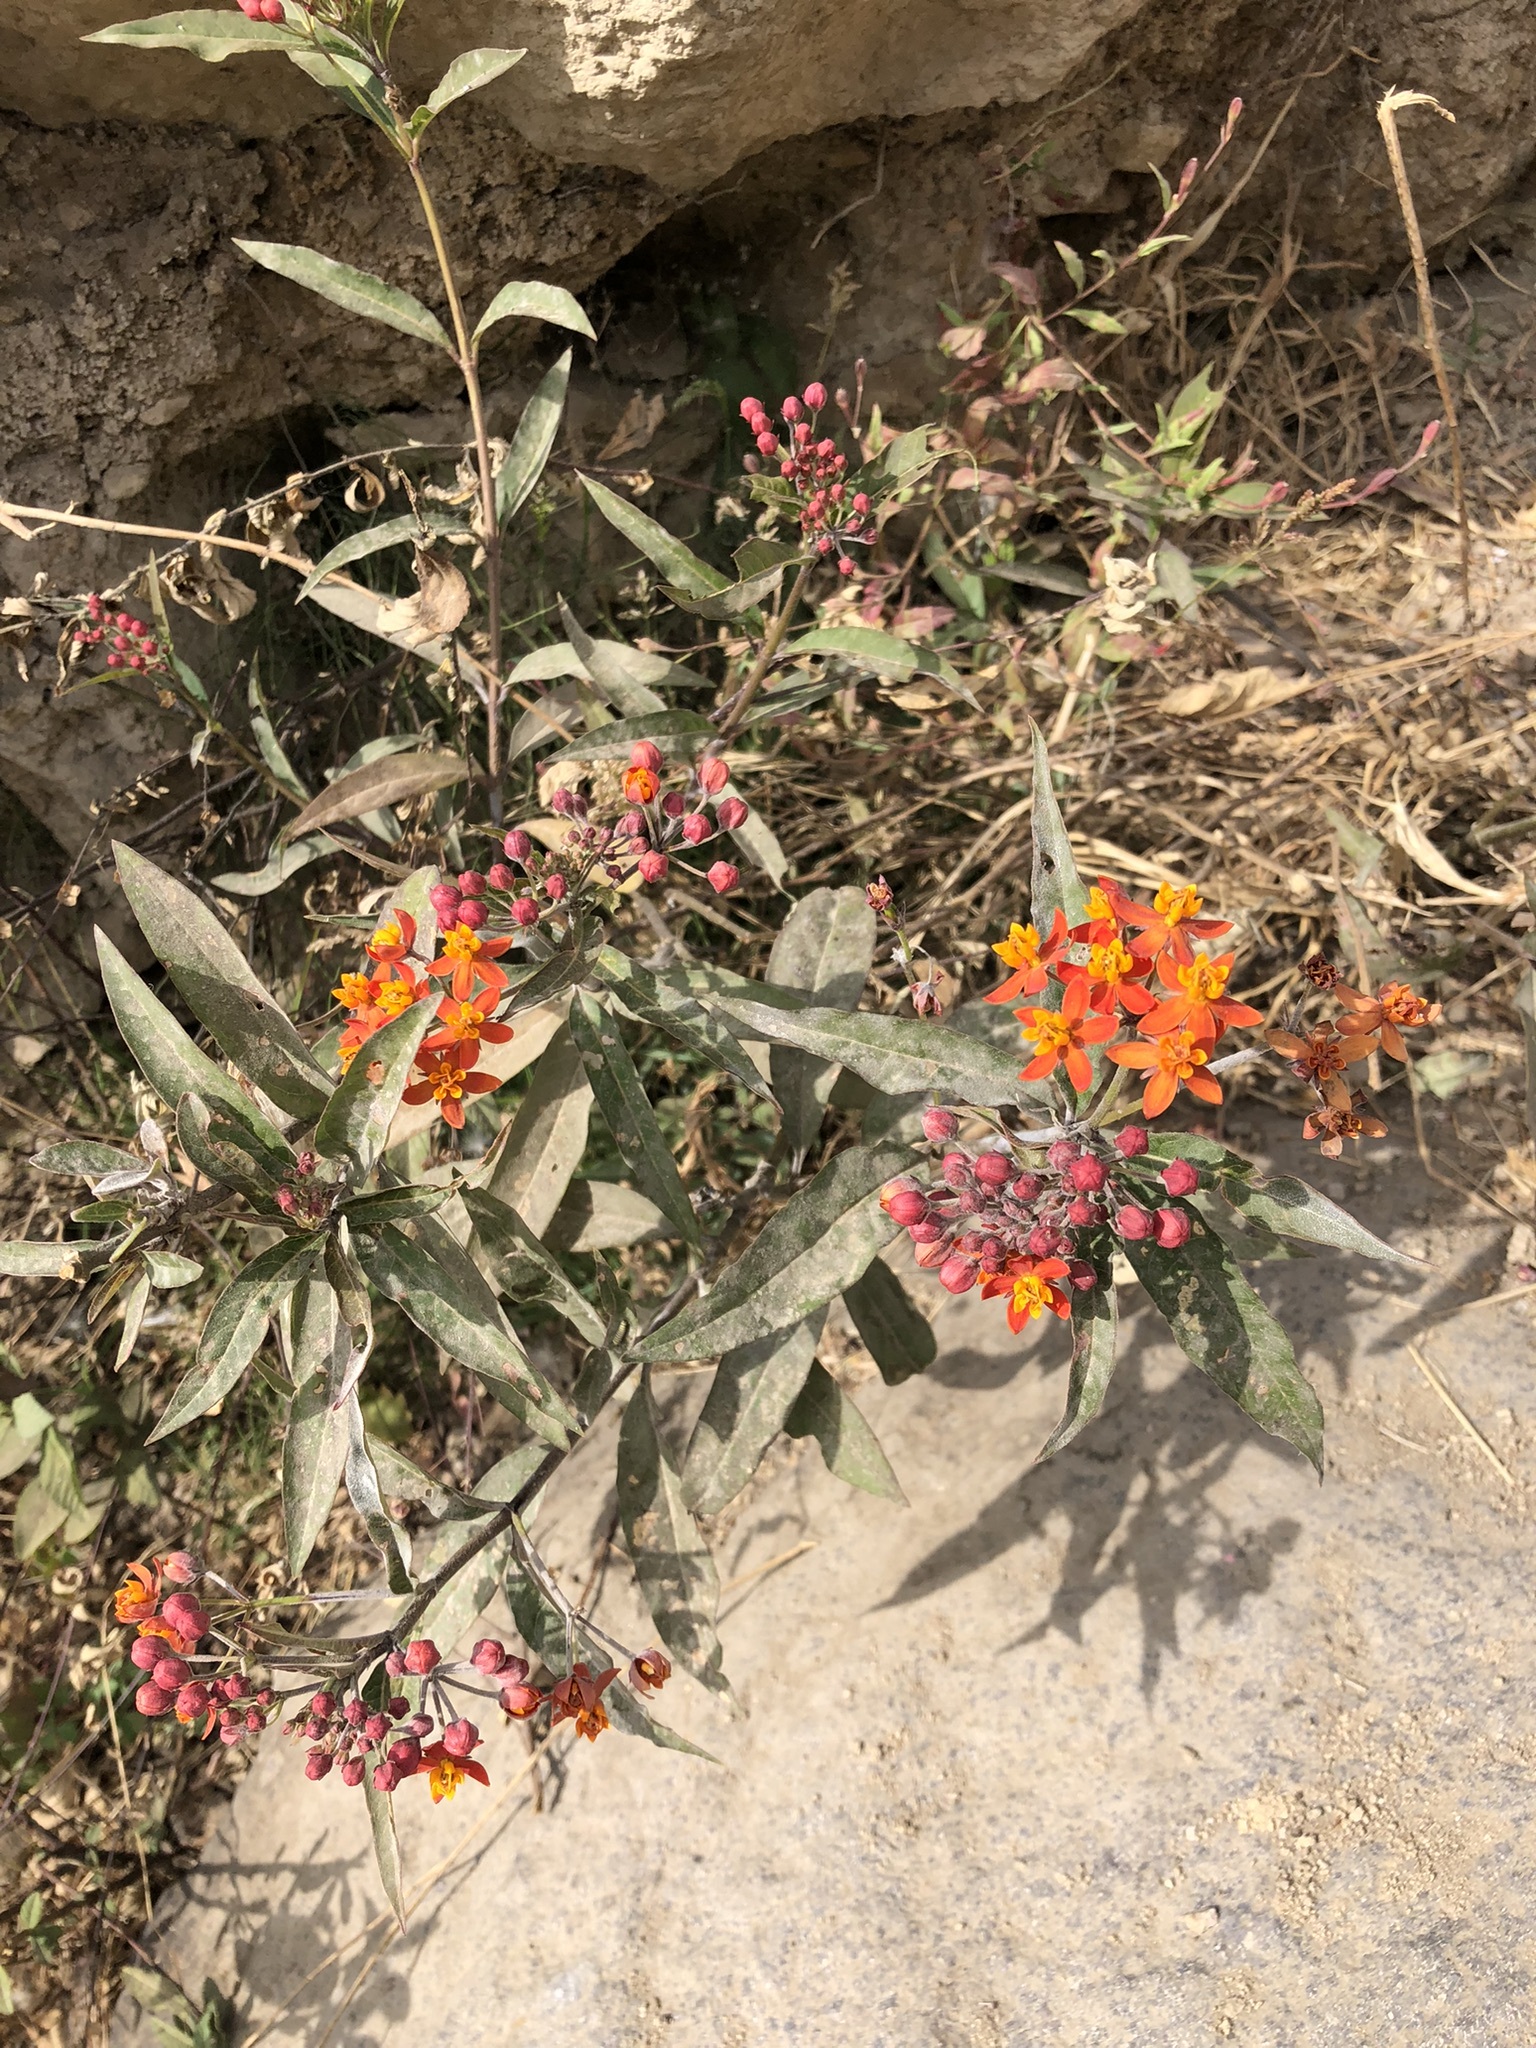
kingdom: Plantae
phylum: Tracheophyta
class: Magnoliopsida
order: Gentianales
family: Apocynaceae
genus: Asclepias
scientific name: Asclepias curassavica
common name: Bloodflower
